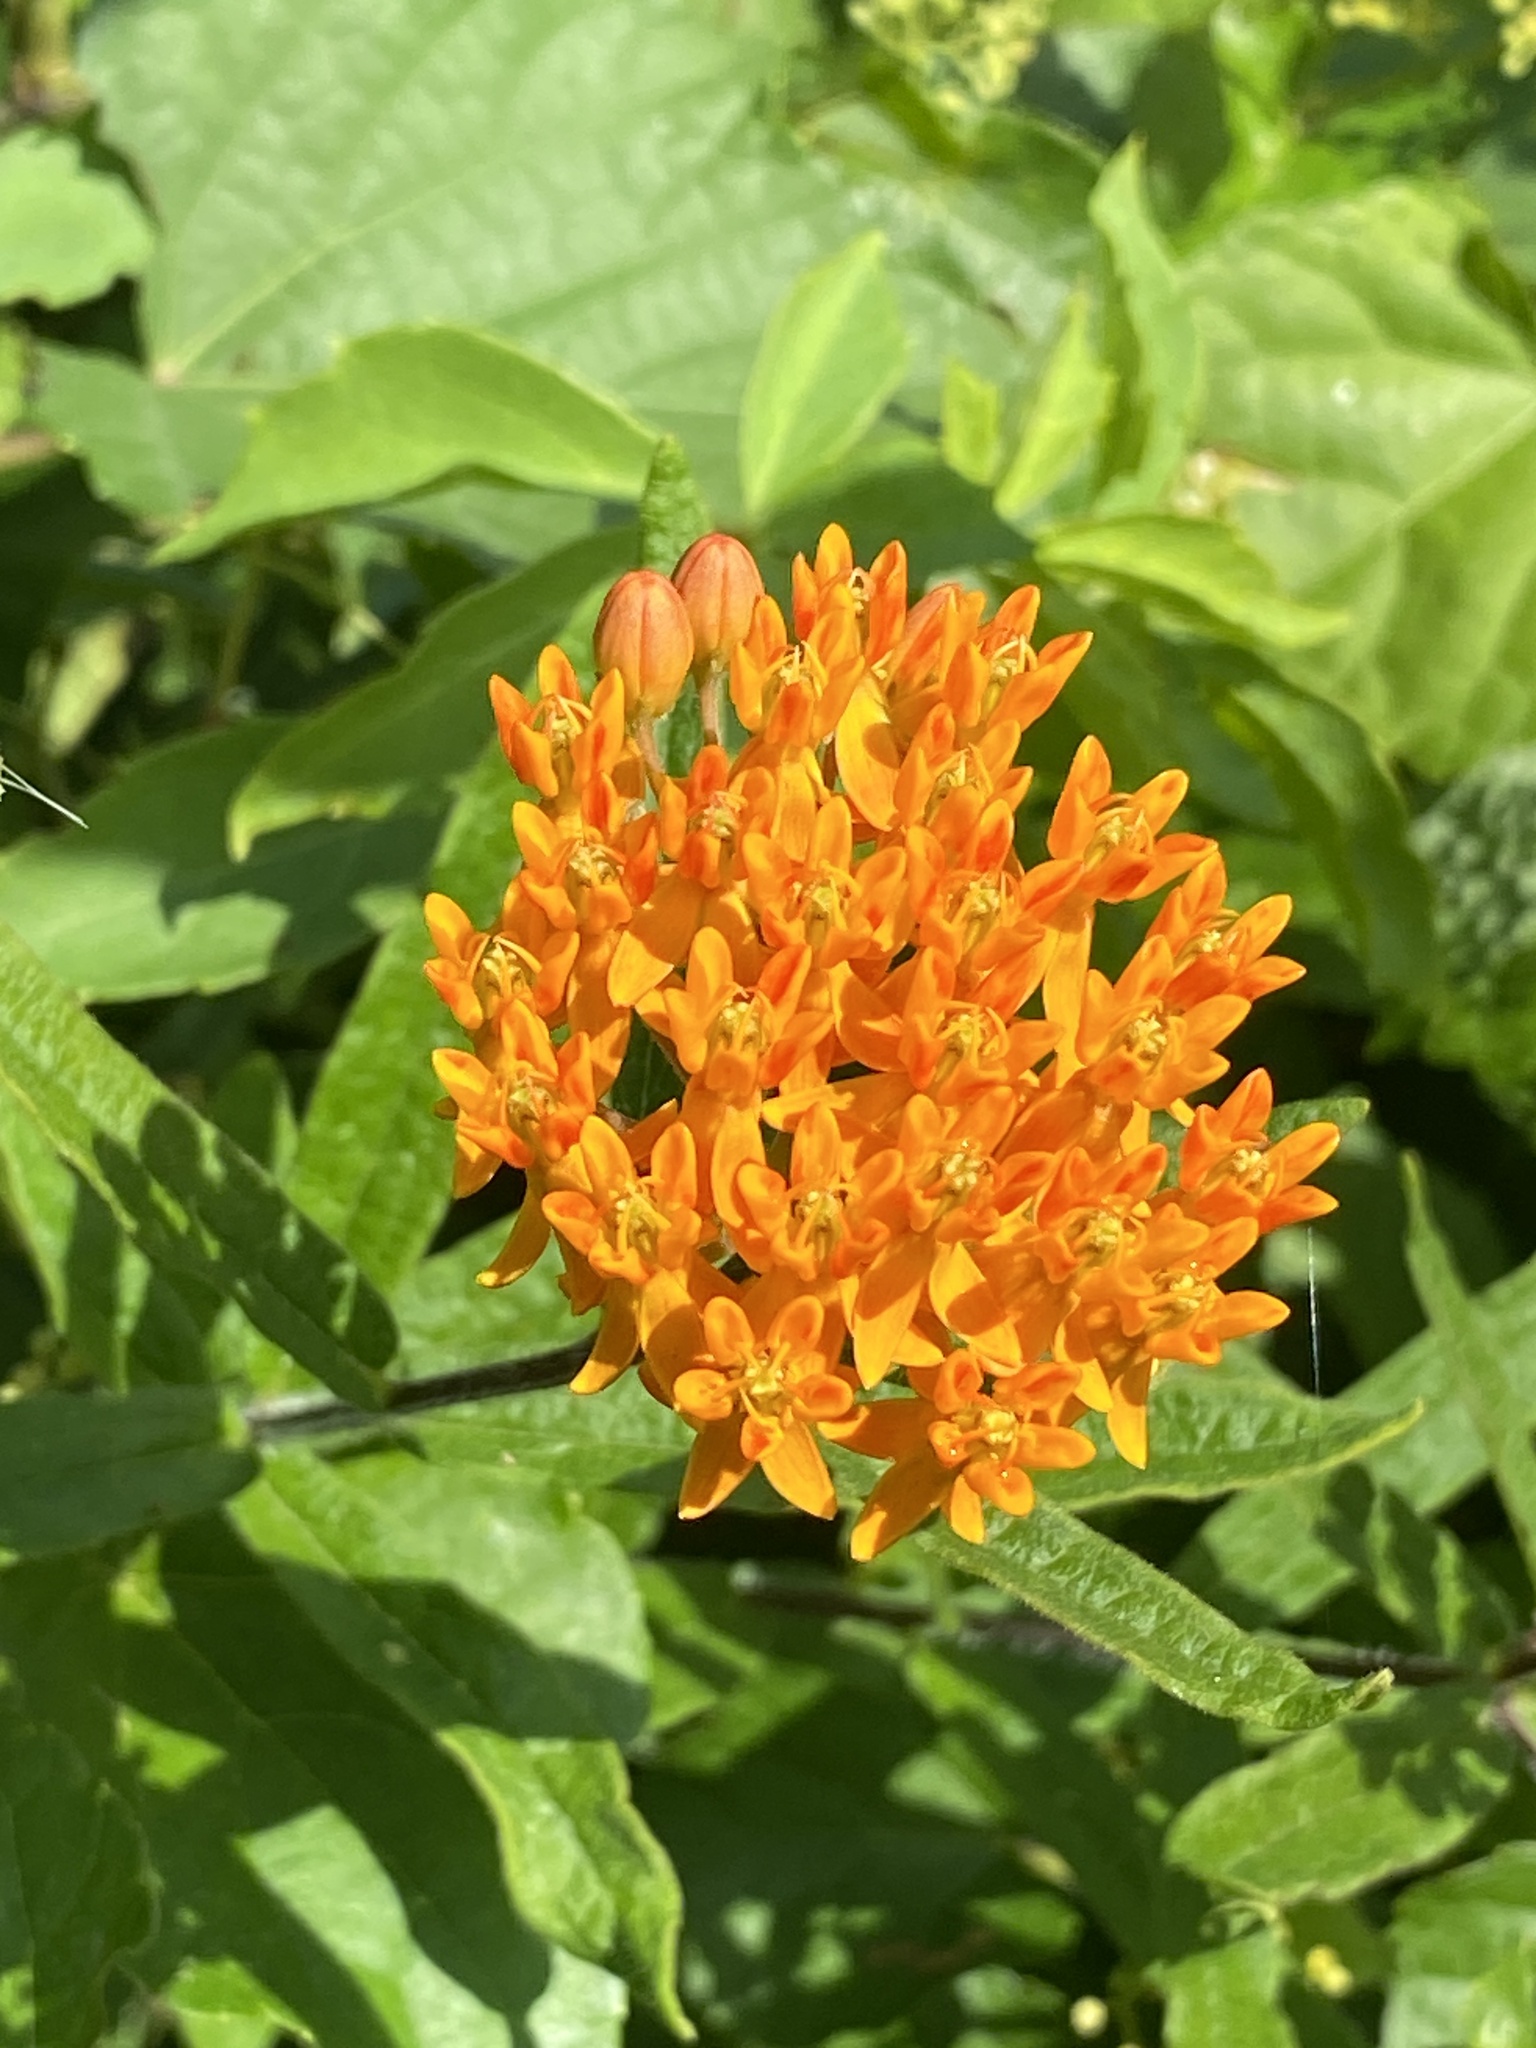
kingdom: Plantae
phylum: Tracheophyta
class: Magnoliopsida
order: Gentianales
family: Apocynaceae
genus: Asclepias
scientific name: Asclepias tuberosa
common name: Butterfly milkweed
